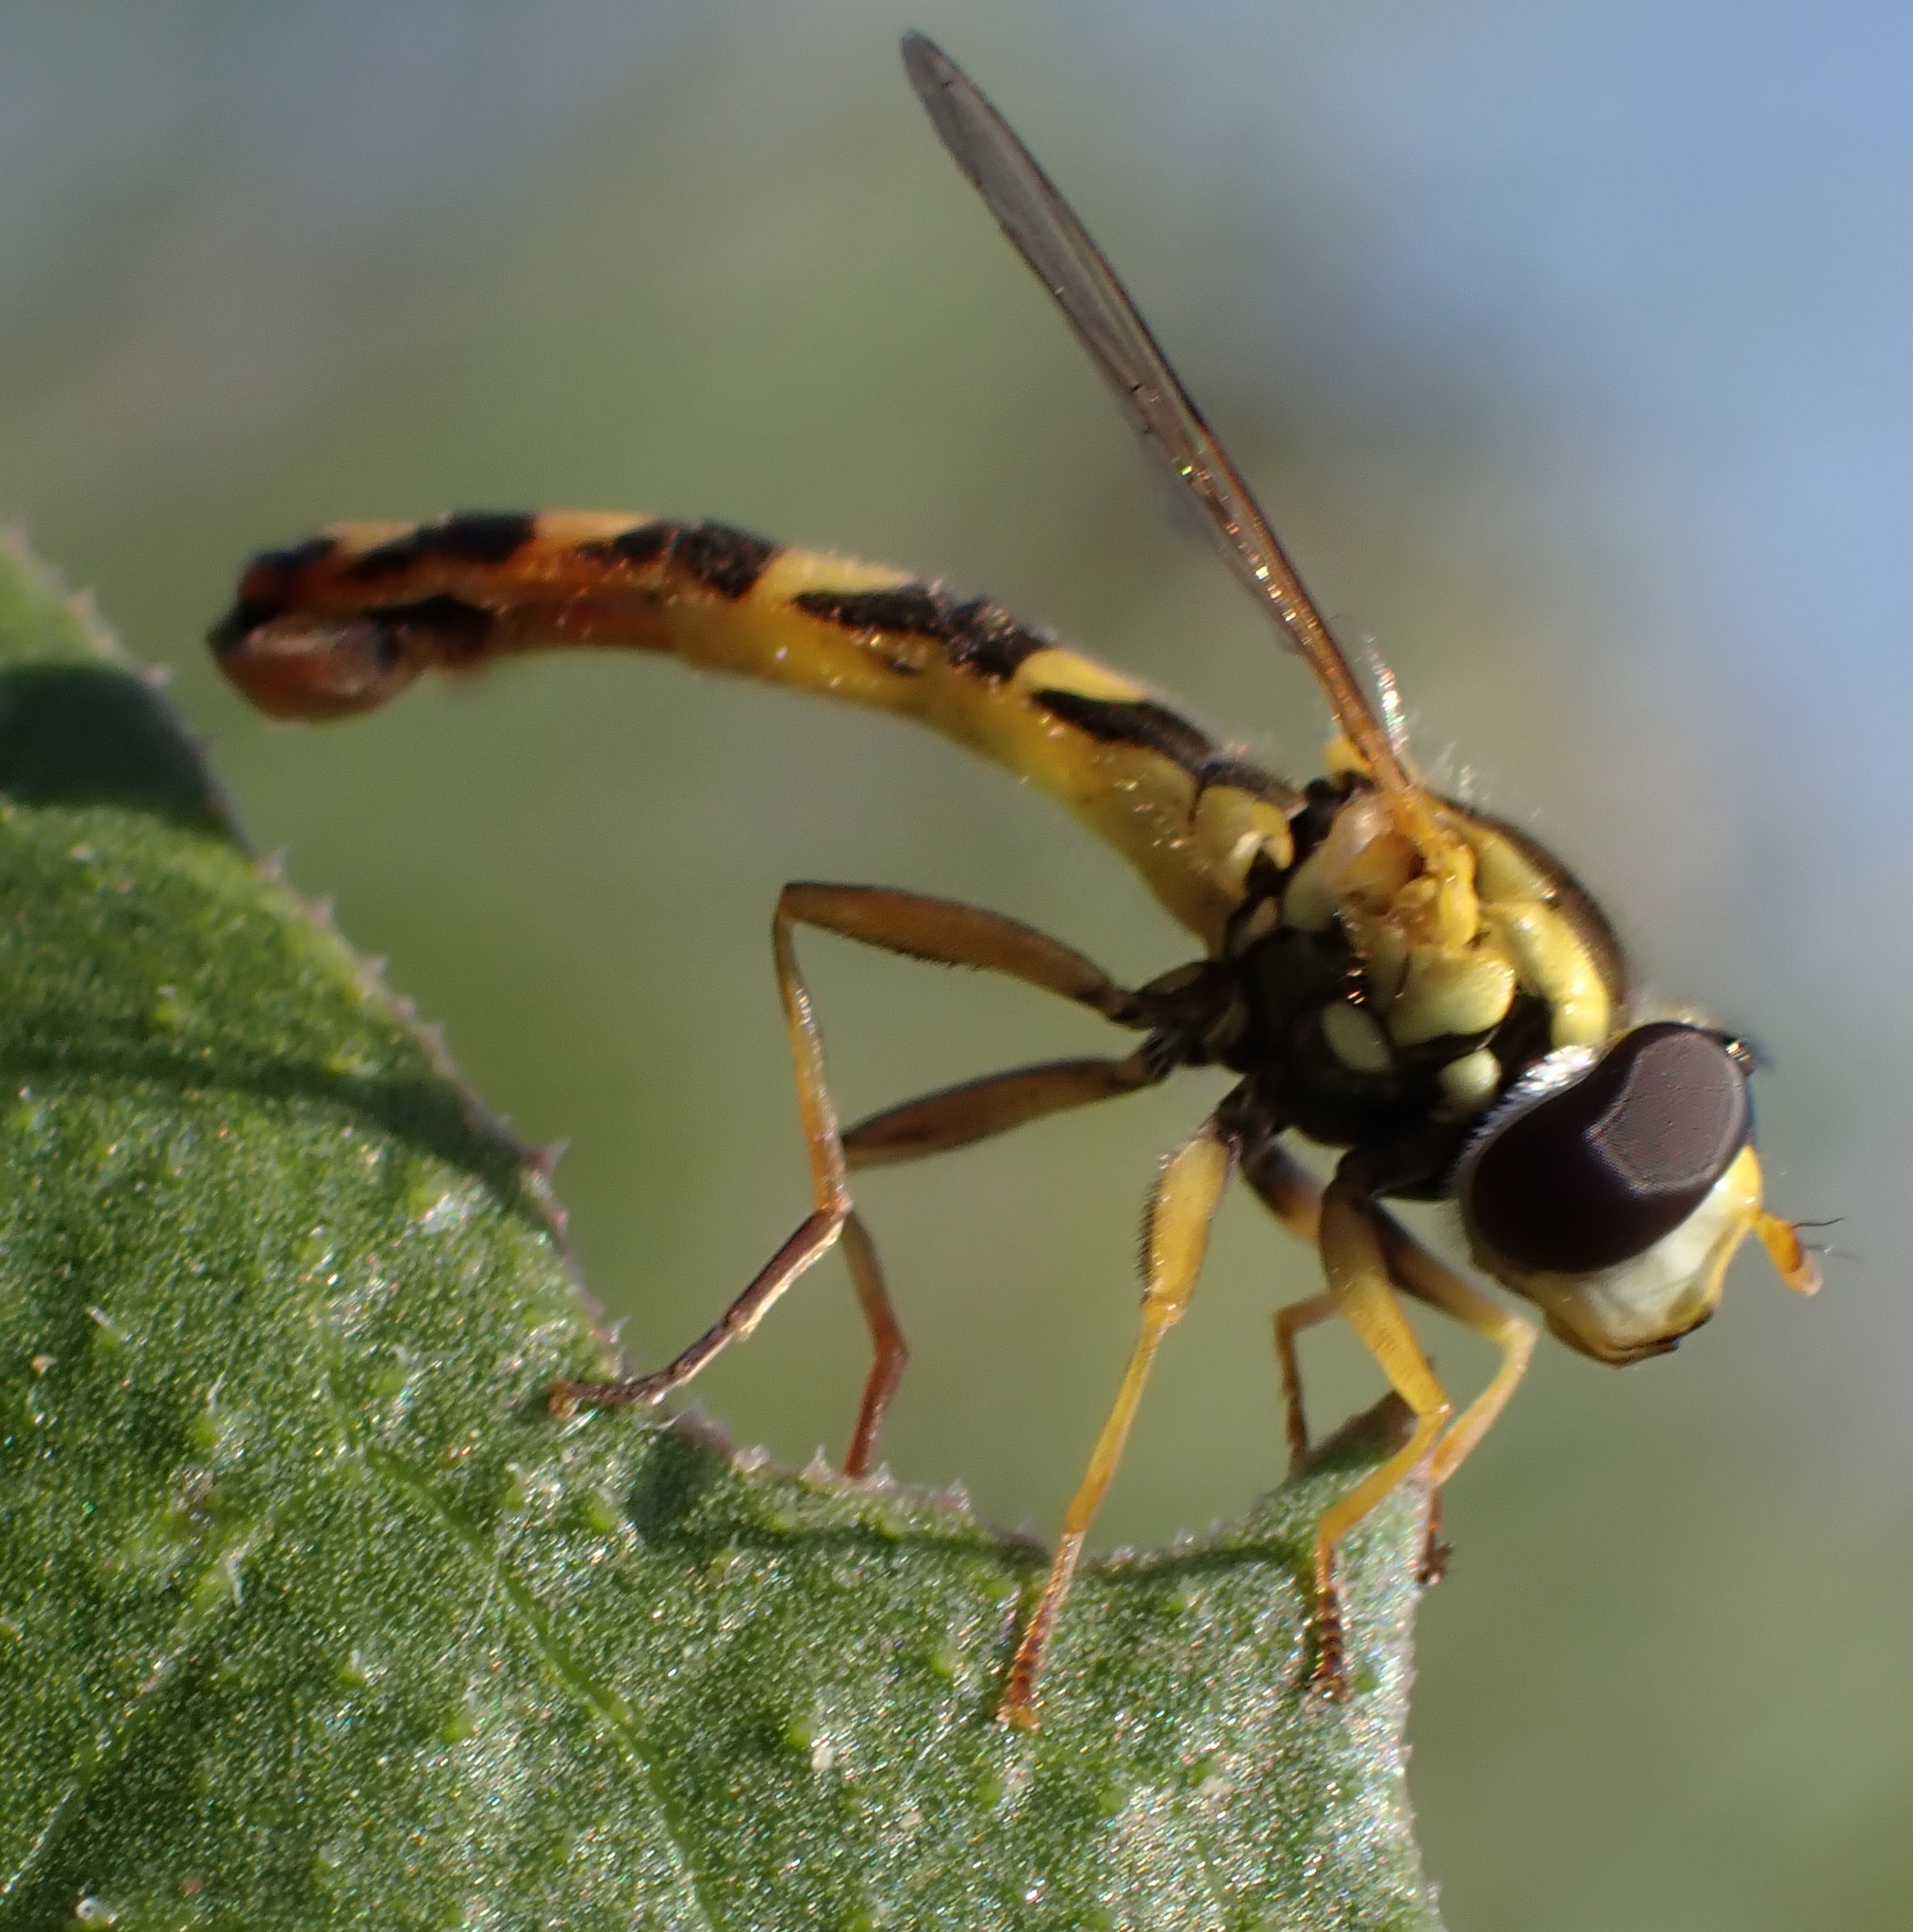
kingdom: Animalia
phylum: Arthropoda
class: Insecta
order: Diptera
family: Syrphidae
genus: Sphaerophoria
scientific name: Sphaerophoria scripta
